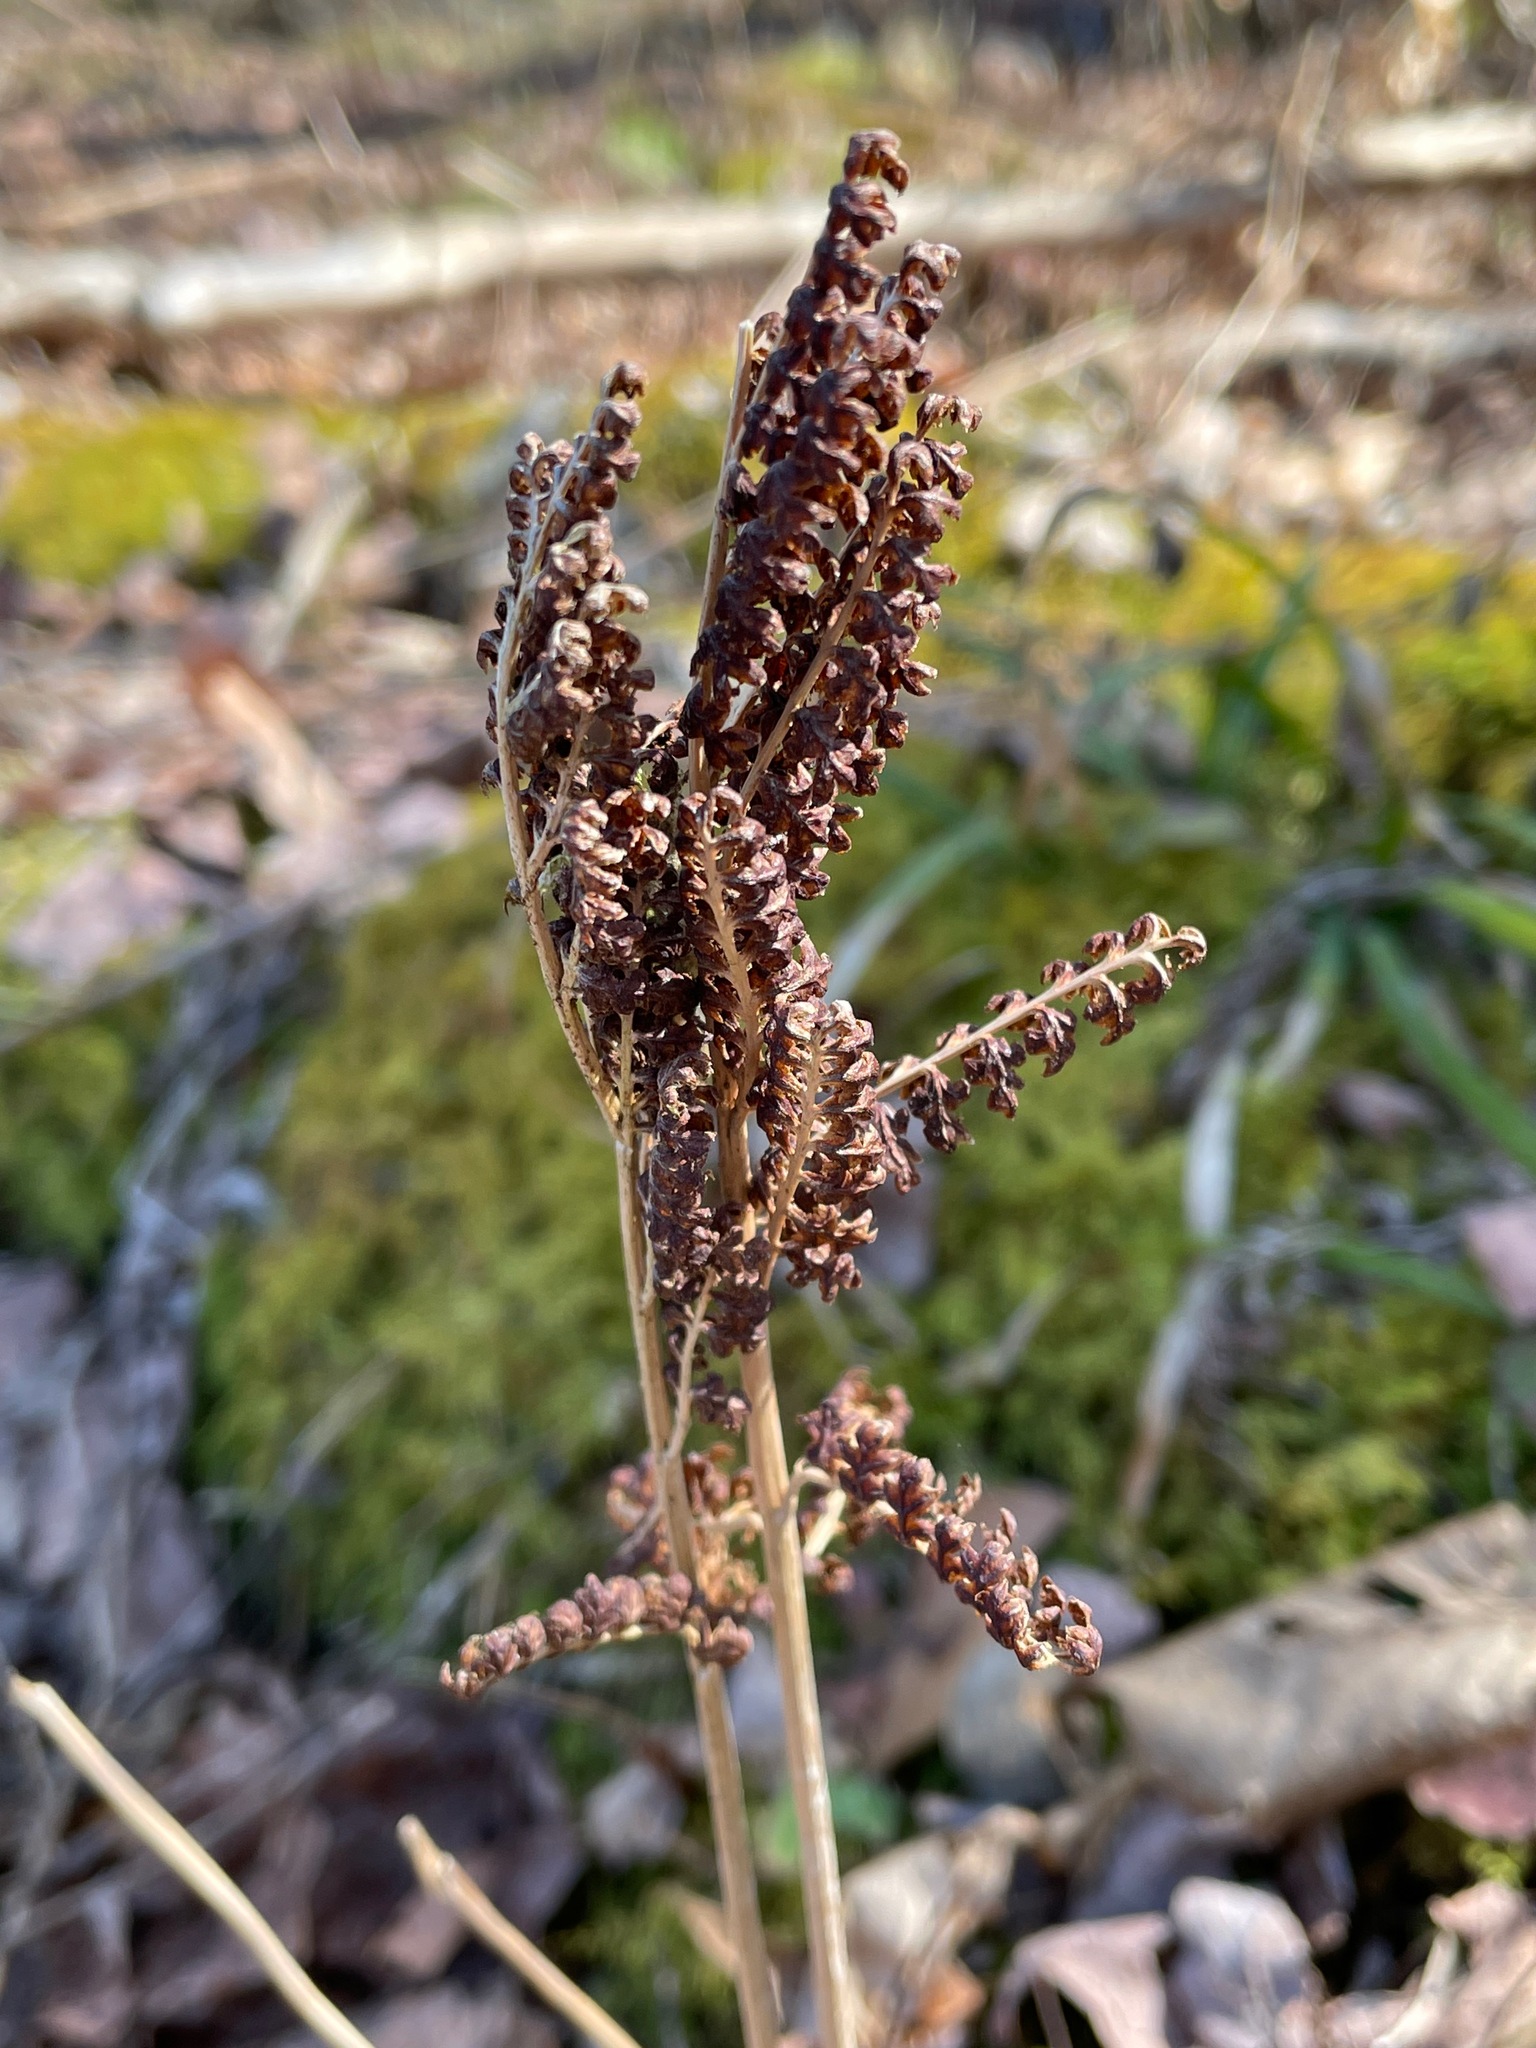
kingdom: Plantae
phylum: Tracheophyta
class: Polypodiopsida
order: Polypodiales
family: Onocleaceae
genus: Onoclea
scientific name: Onoclea sensibilis
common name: Sensitive fern
